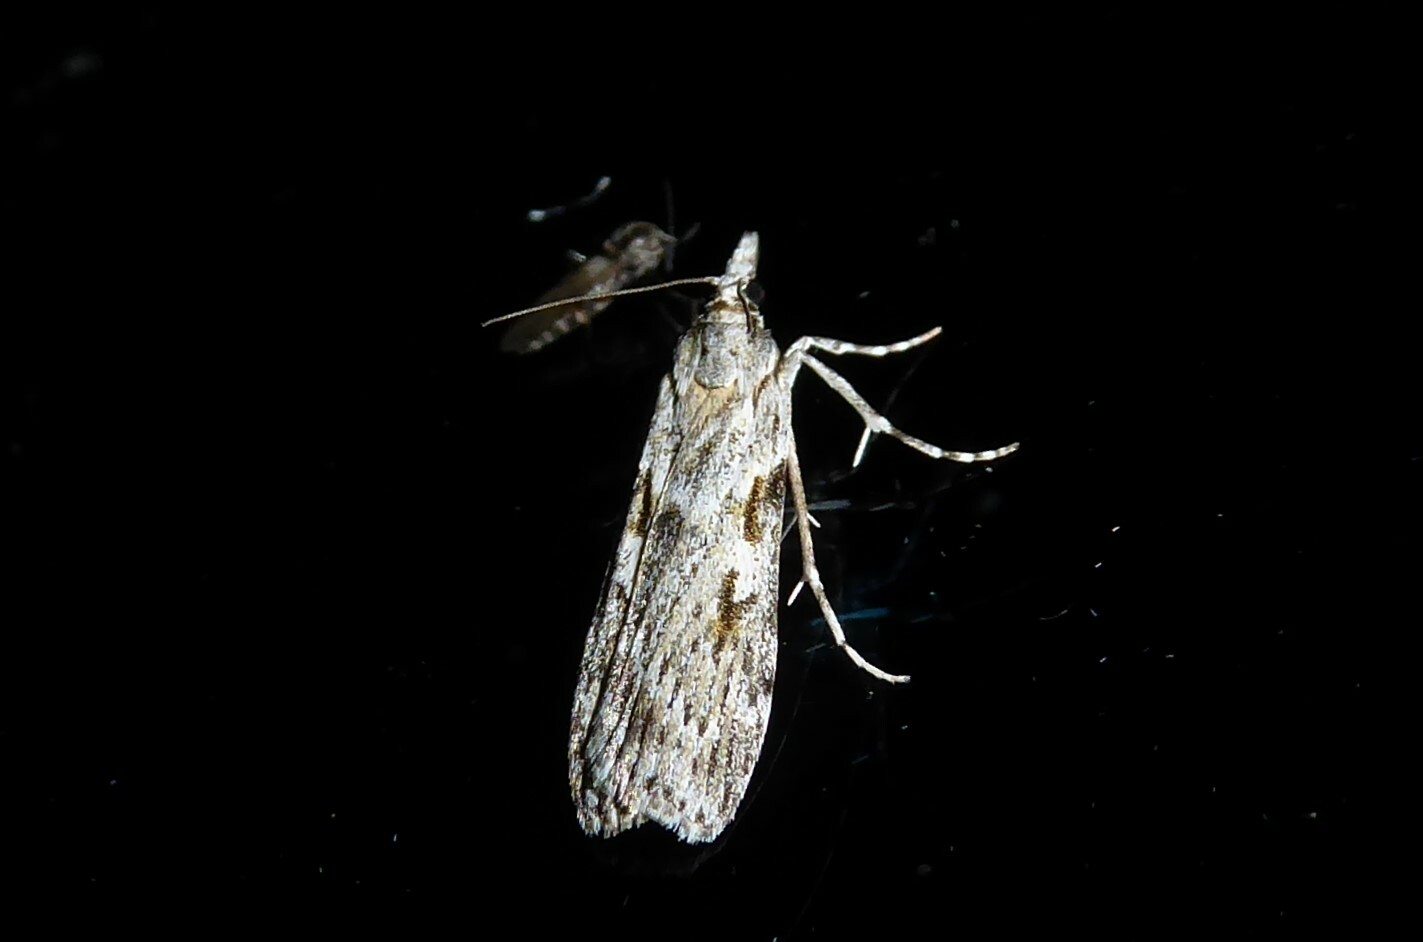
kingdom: Animalia
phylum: Arthropoda
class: Insecta
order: Lepidoptera
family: Crambidae
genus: Scoparia
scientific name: Scoparia halopis
